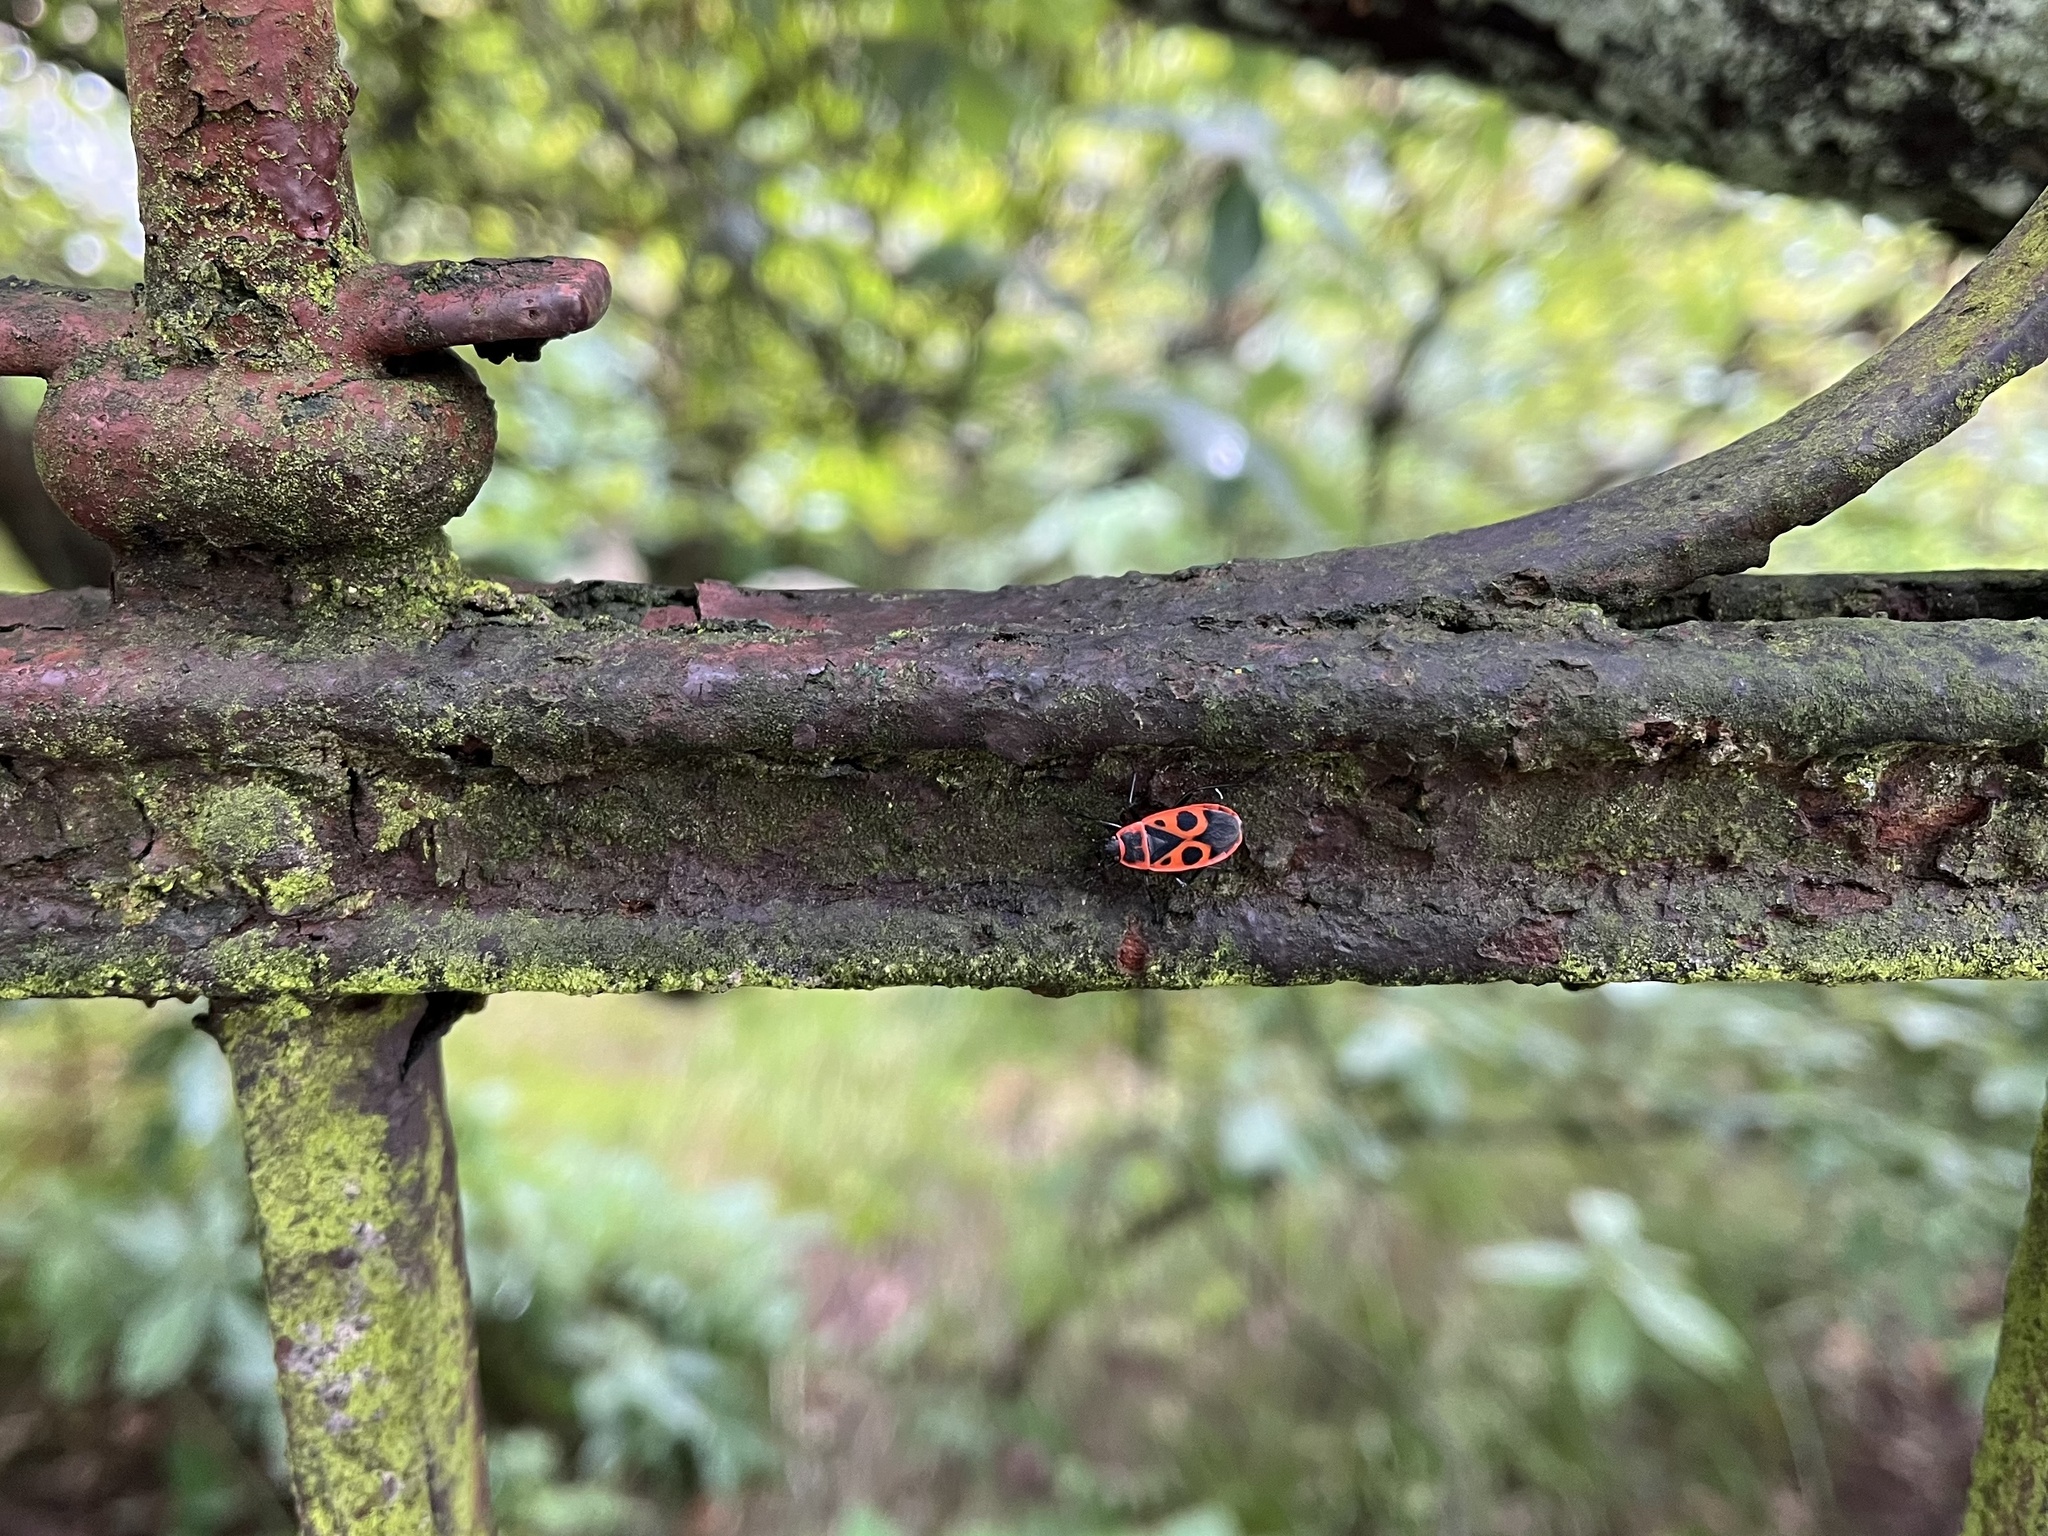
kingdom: Animalia
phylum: Arthropoda
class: Insecta
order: Hemiptera
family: Pyrrhocoridae
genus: Pyrrhocoris
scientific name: Pyrrhocoris apterus
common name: Firebug
